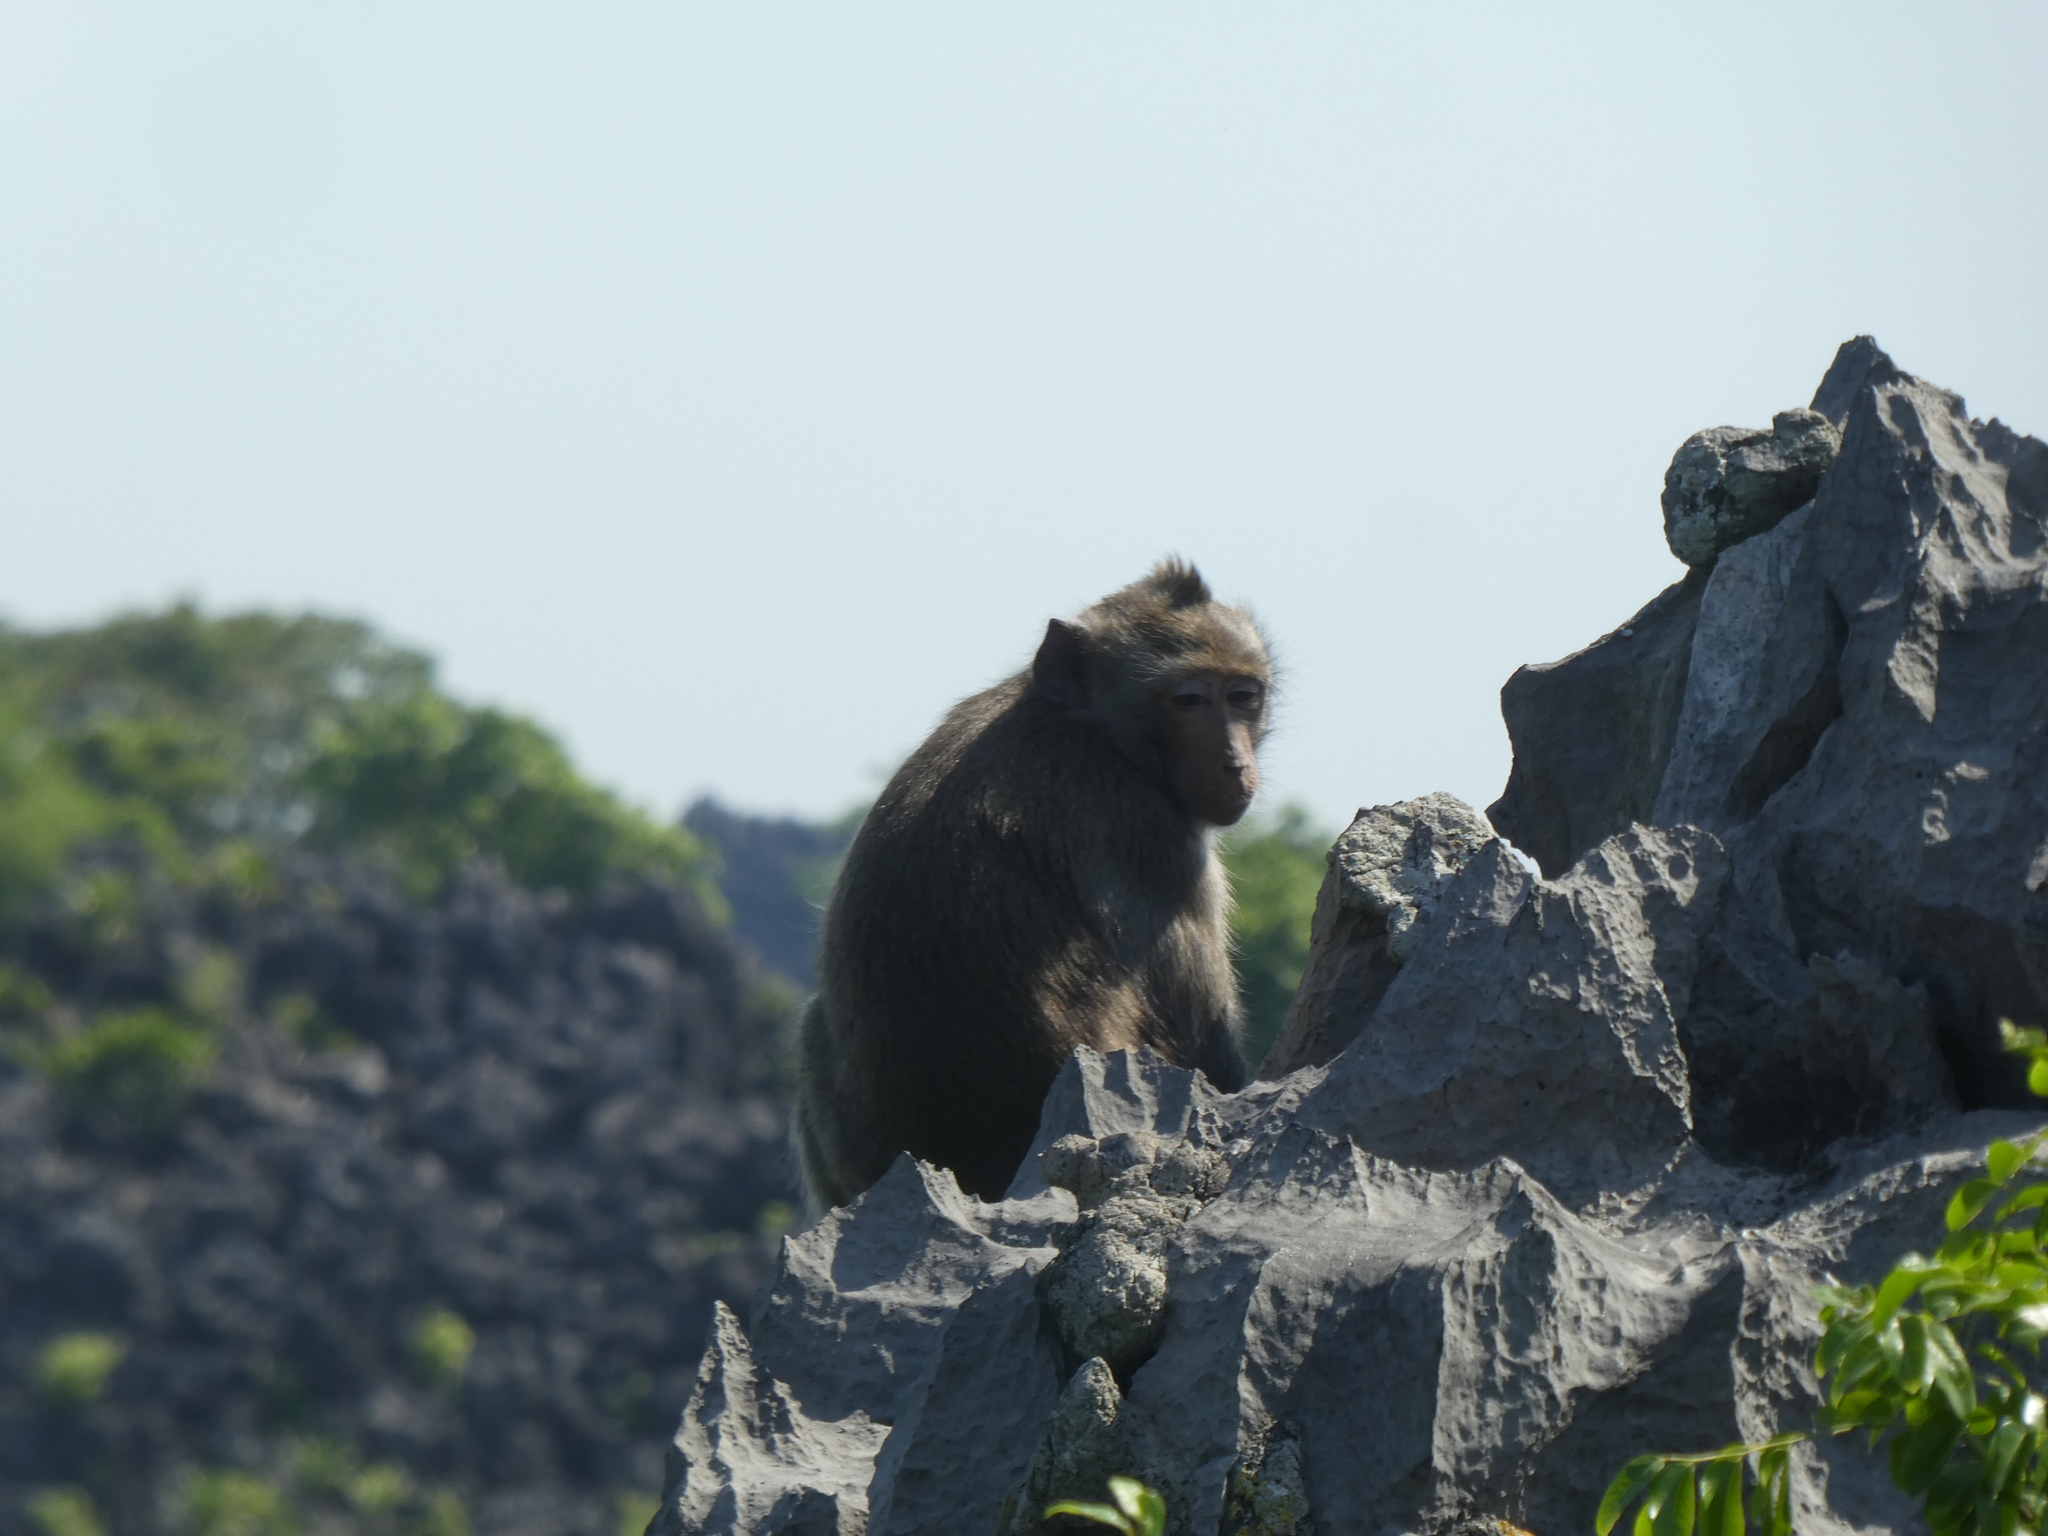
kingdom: Animalia
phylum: Chordata
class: Mammalia
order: Primates
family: Cercopithecidae
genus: Macaca
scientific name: Macaca fascicularis
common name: Crab-eating macaque
